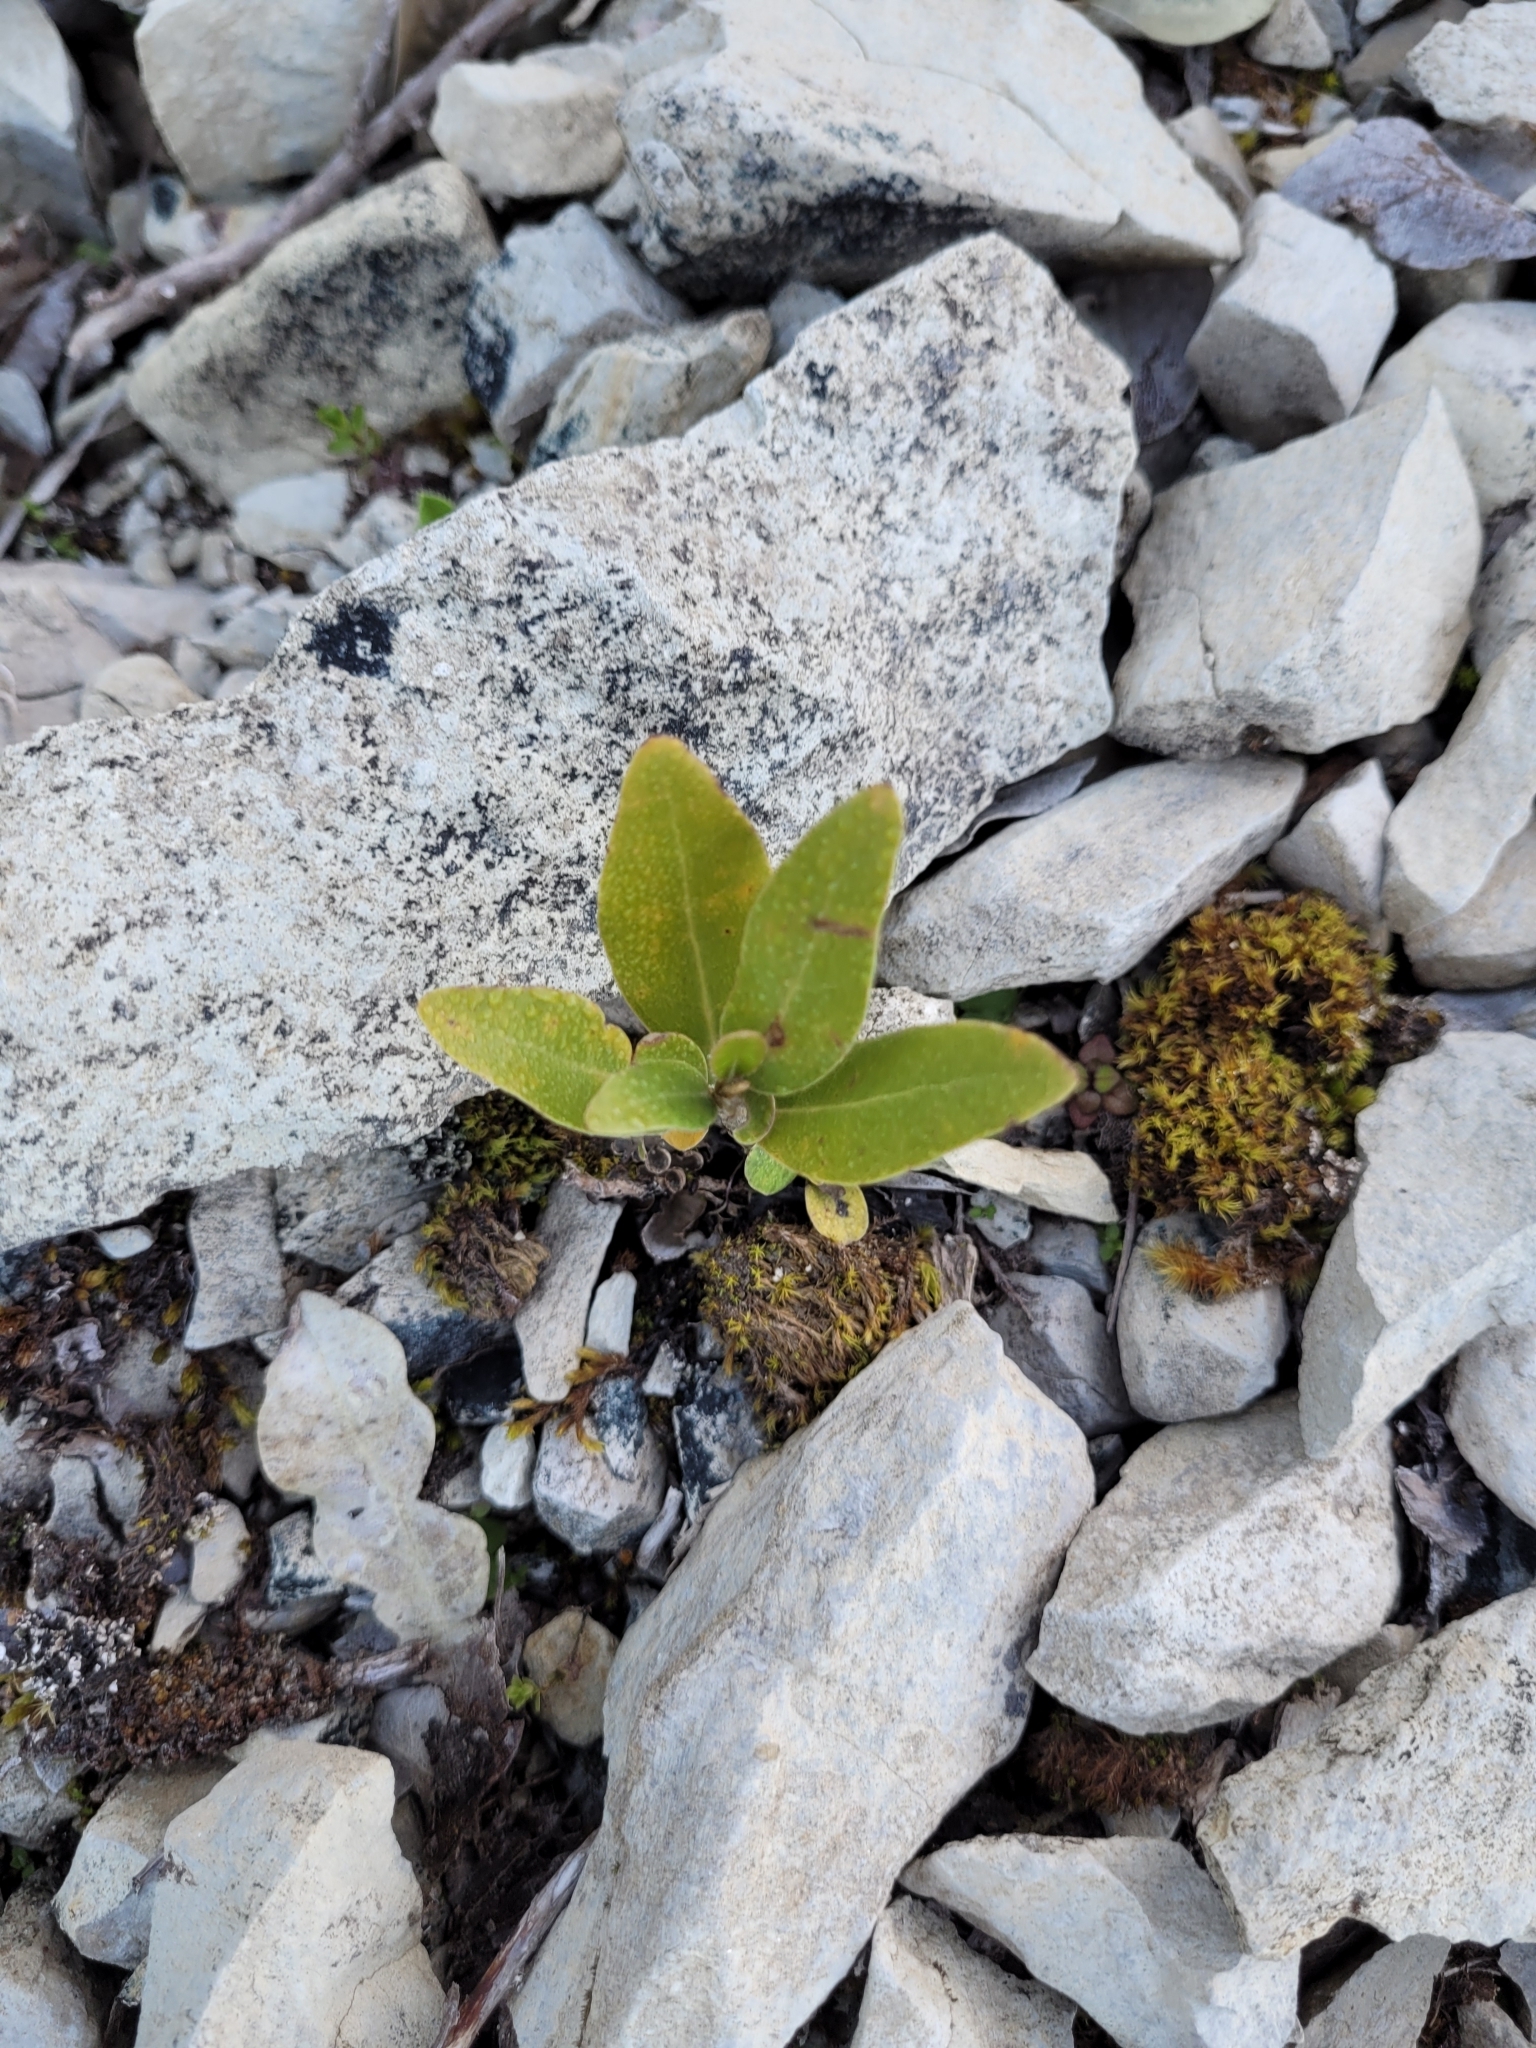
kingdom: Plantae
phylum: Tracheophyta
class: Magnoliopsida
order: Asterales
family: Asteraceae
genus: Olearia
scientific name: Olearia avicenniifolia
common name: Mangrove-leaf daisybush
